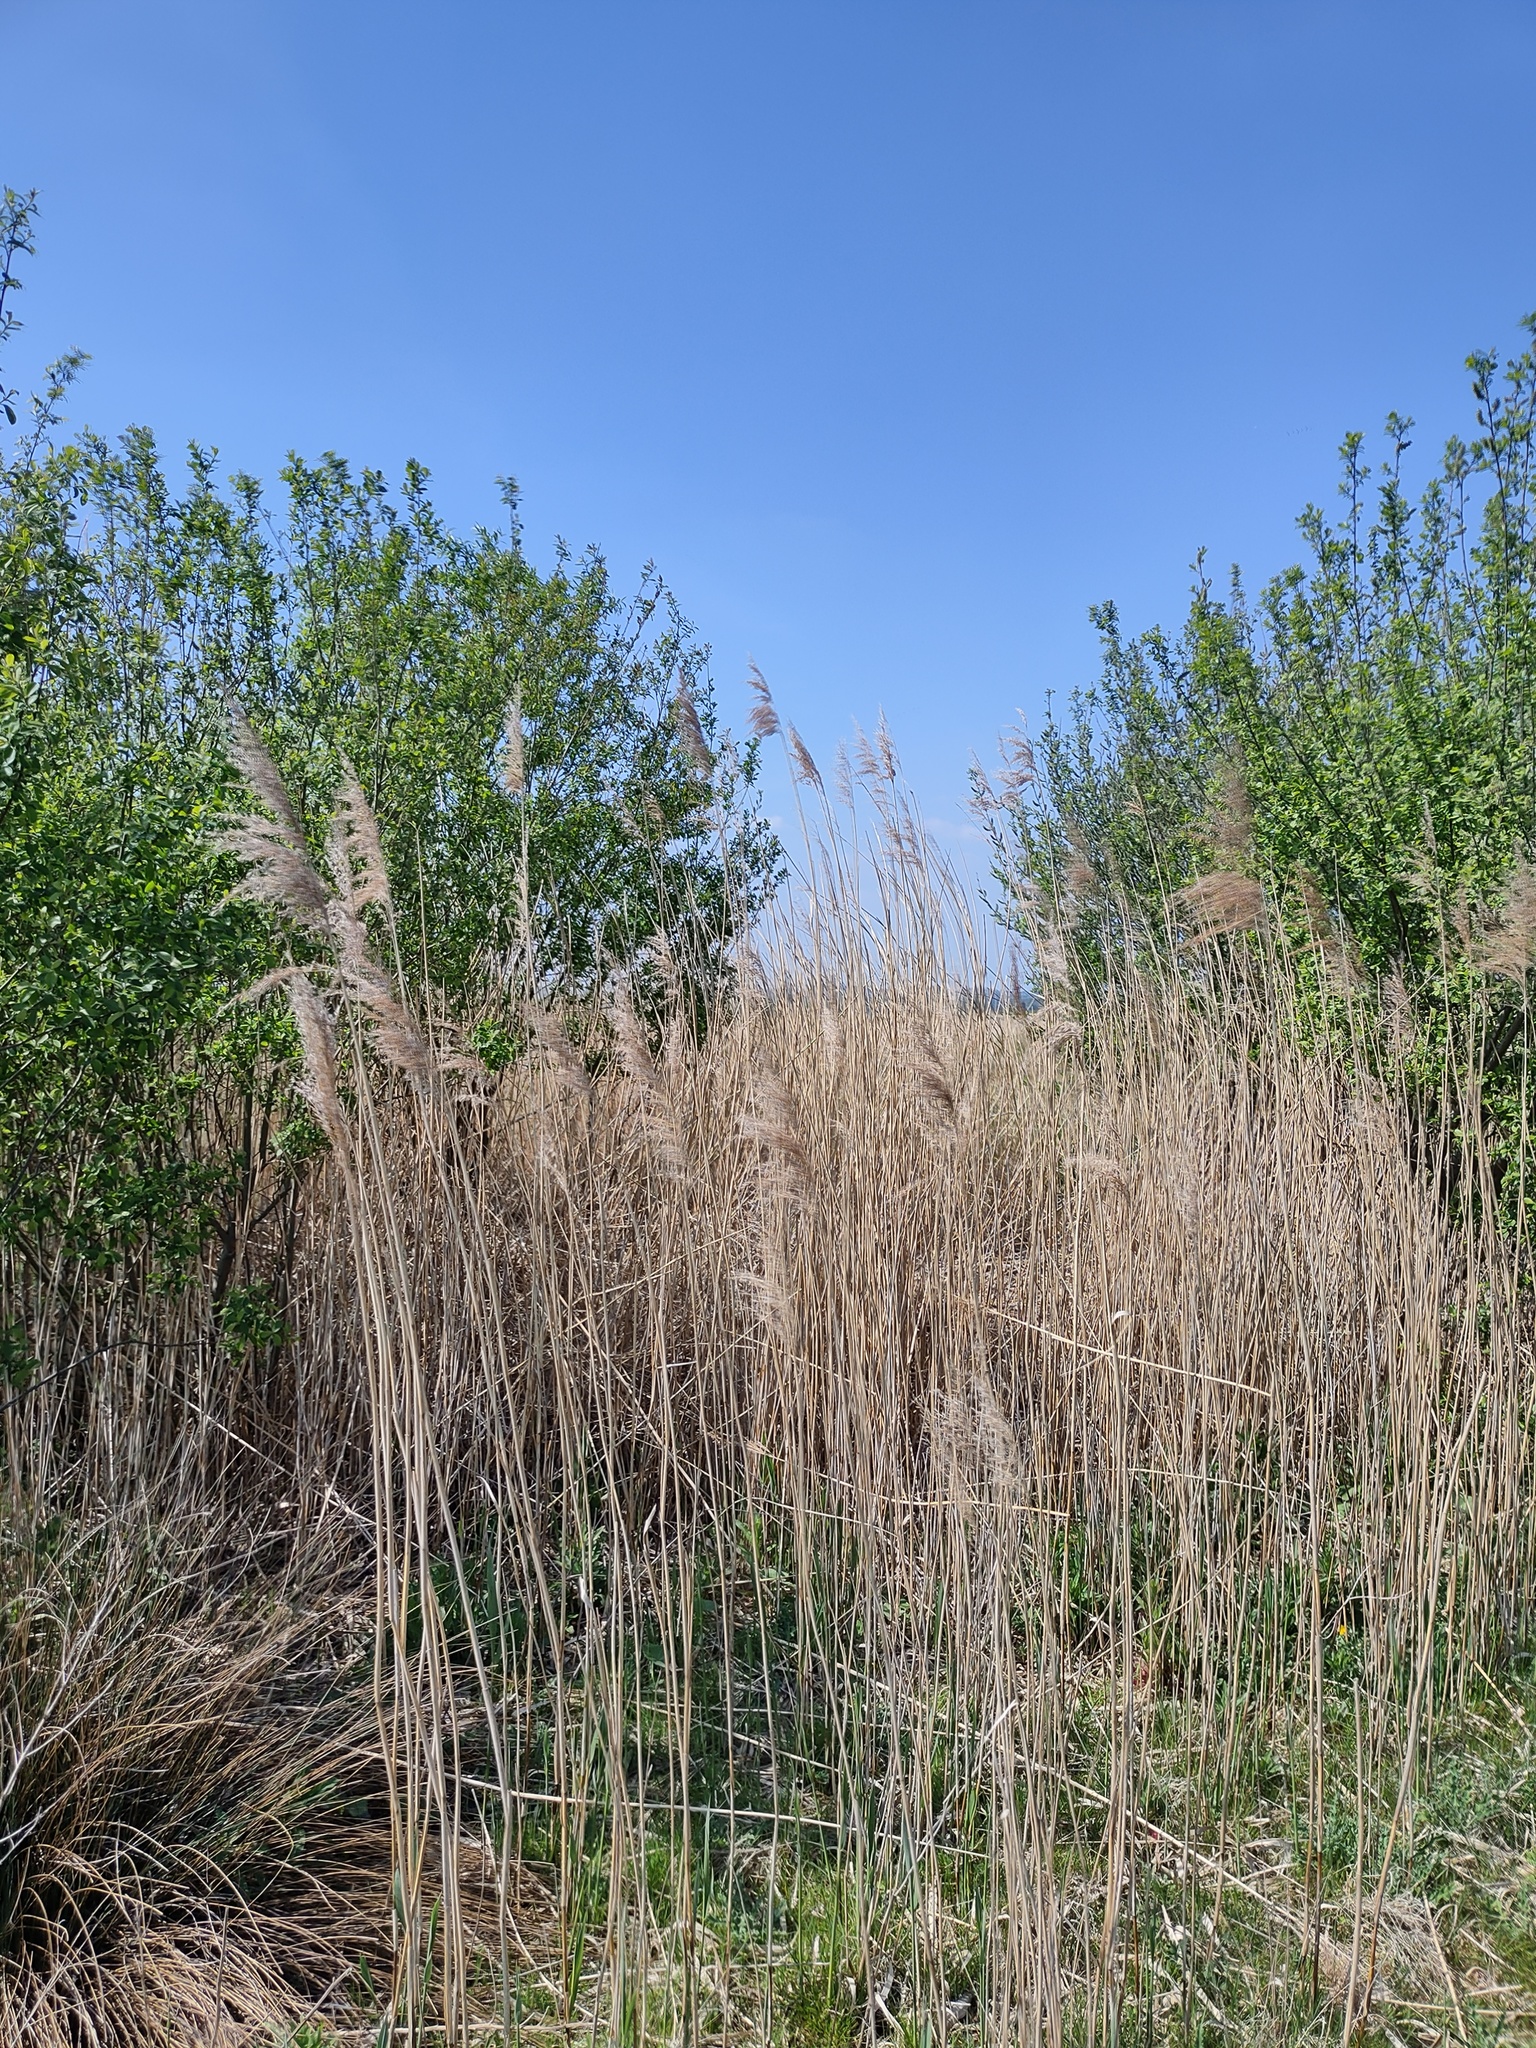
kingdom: Plantae
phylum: Tracheophyta
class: Liliopsida
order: Poales
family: Poaceae
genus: Phragmites
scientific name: Phragmites australis
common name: Common reed
